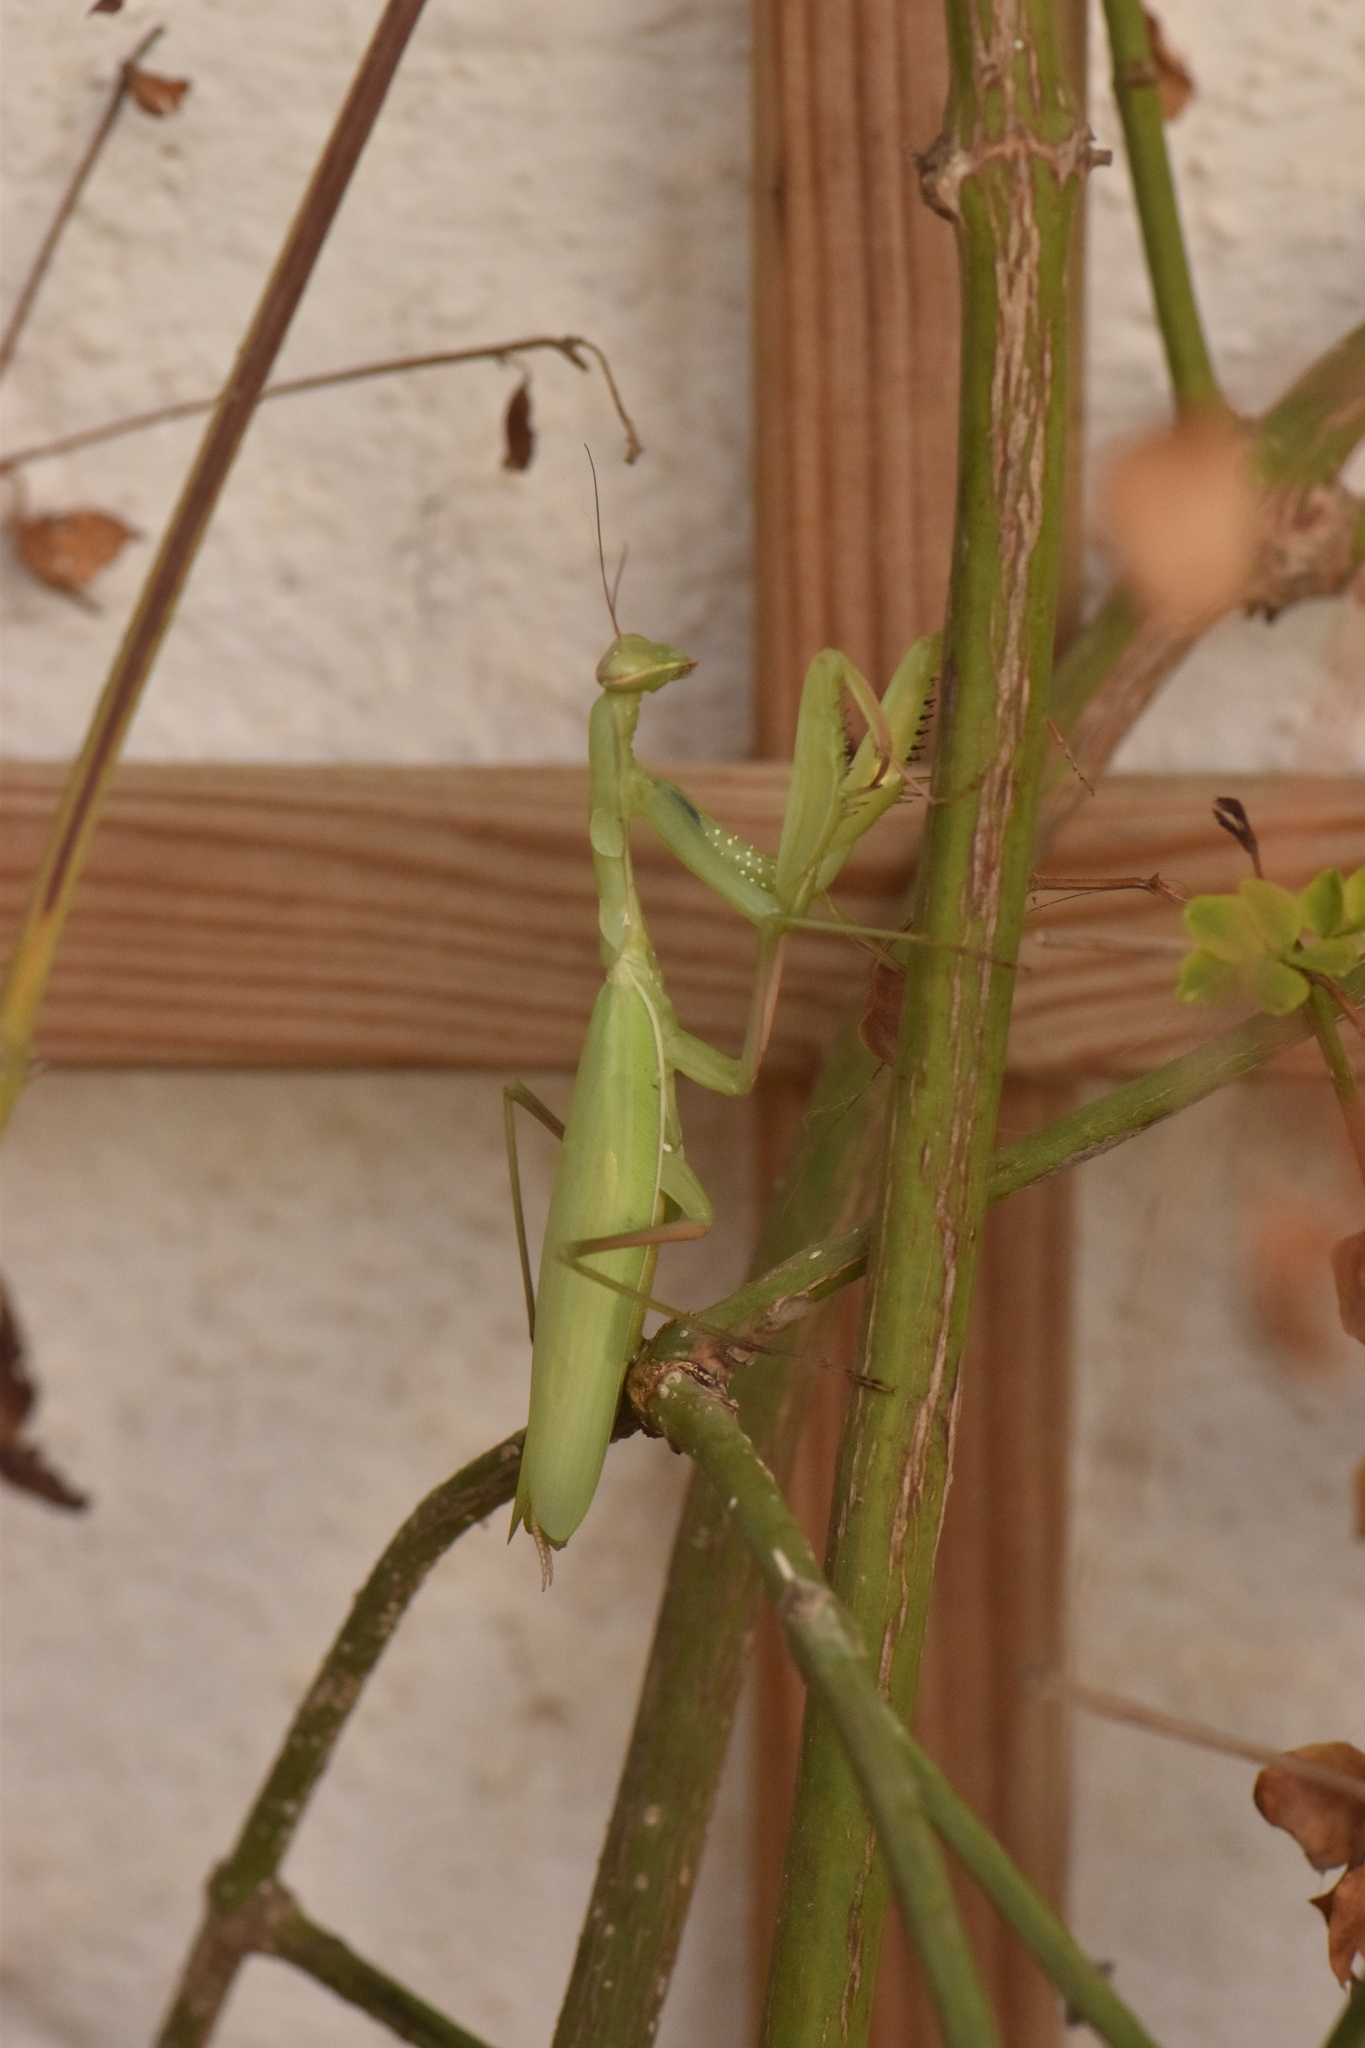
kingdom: Animalia
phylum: Arthropoda
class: Insecta
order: Mantodea
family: Mantidae
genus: Mantis
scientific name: Mantis religiosa
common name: Praying mantis
